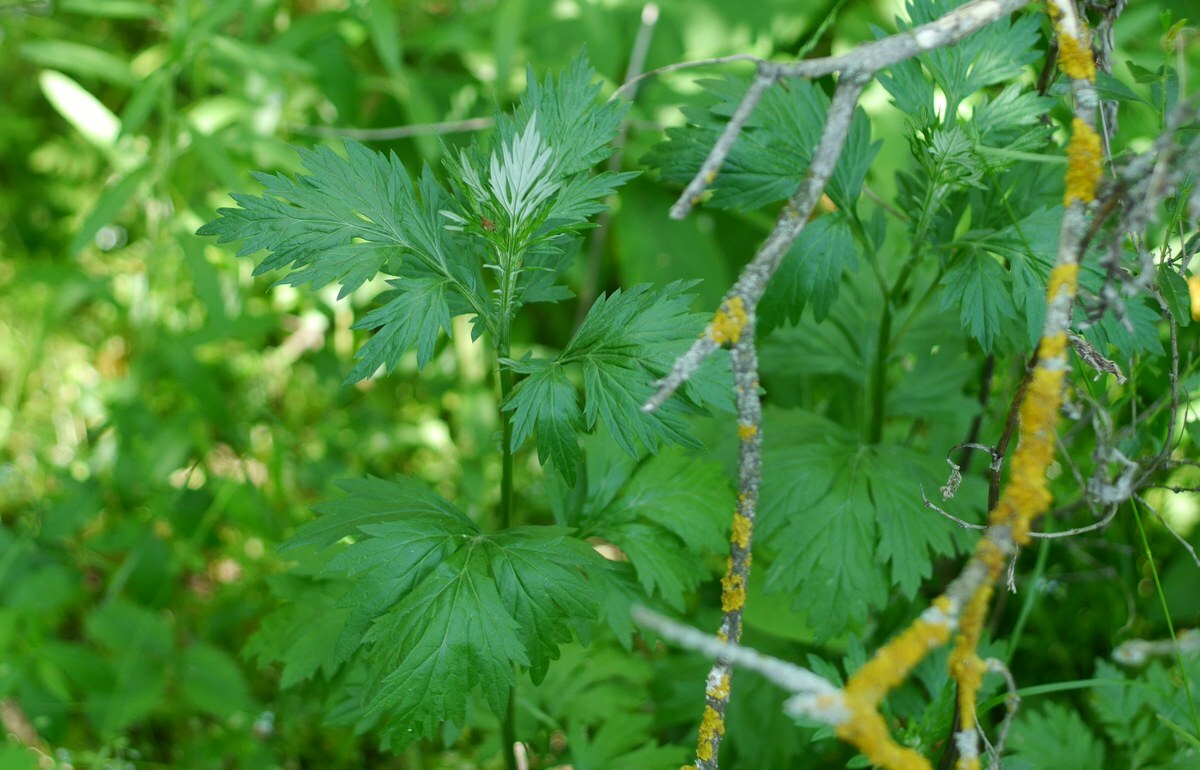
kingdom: Plantae
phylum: Tracheophyta
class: Magnoliopsida
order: Asterales
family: Asteraceae
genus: Artemisia
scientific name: Artemisia vulgaris
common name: Mugwort
